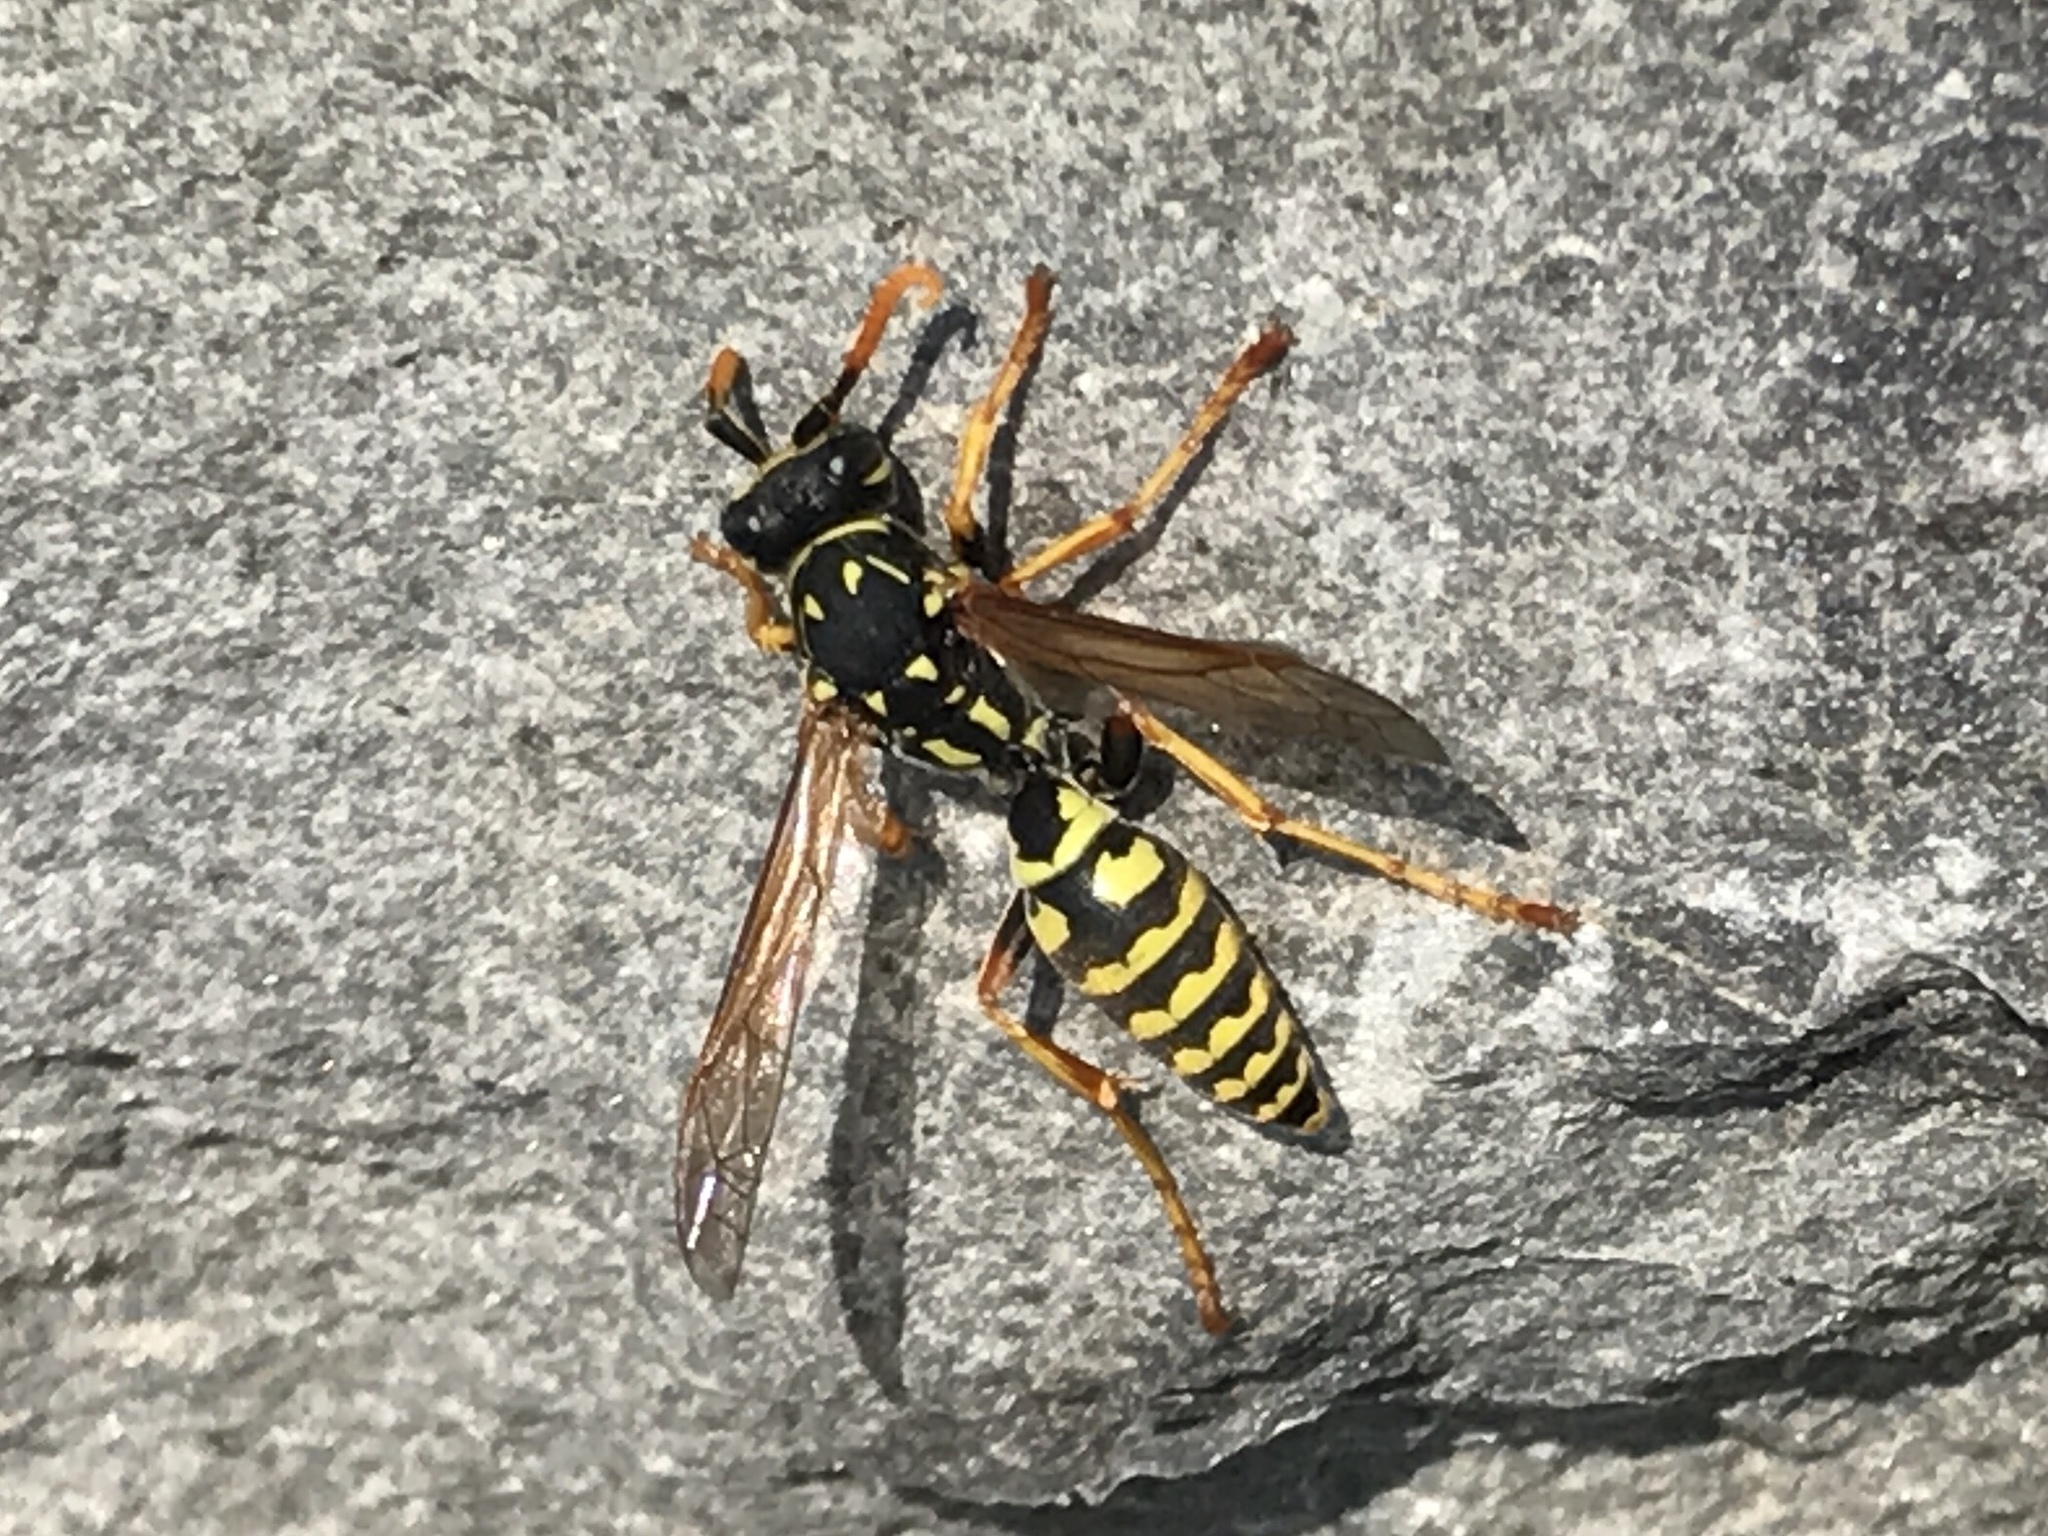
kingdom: Animalia
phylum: Arthropoda
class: Insecta
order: Hymenoptera
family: Eumenidae
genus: Polistes
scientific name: Polistes dominula
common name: Paper wasp
